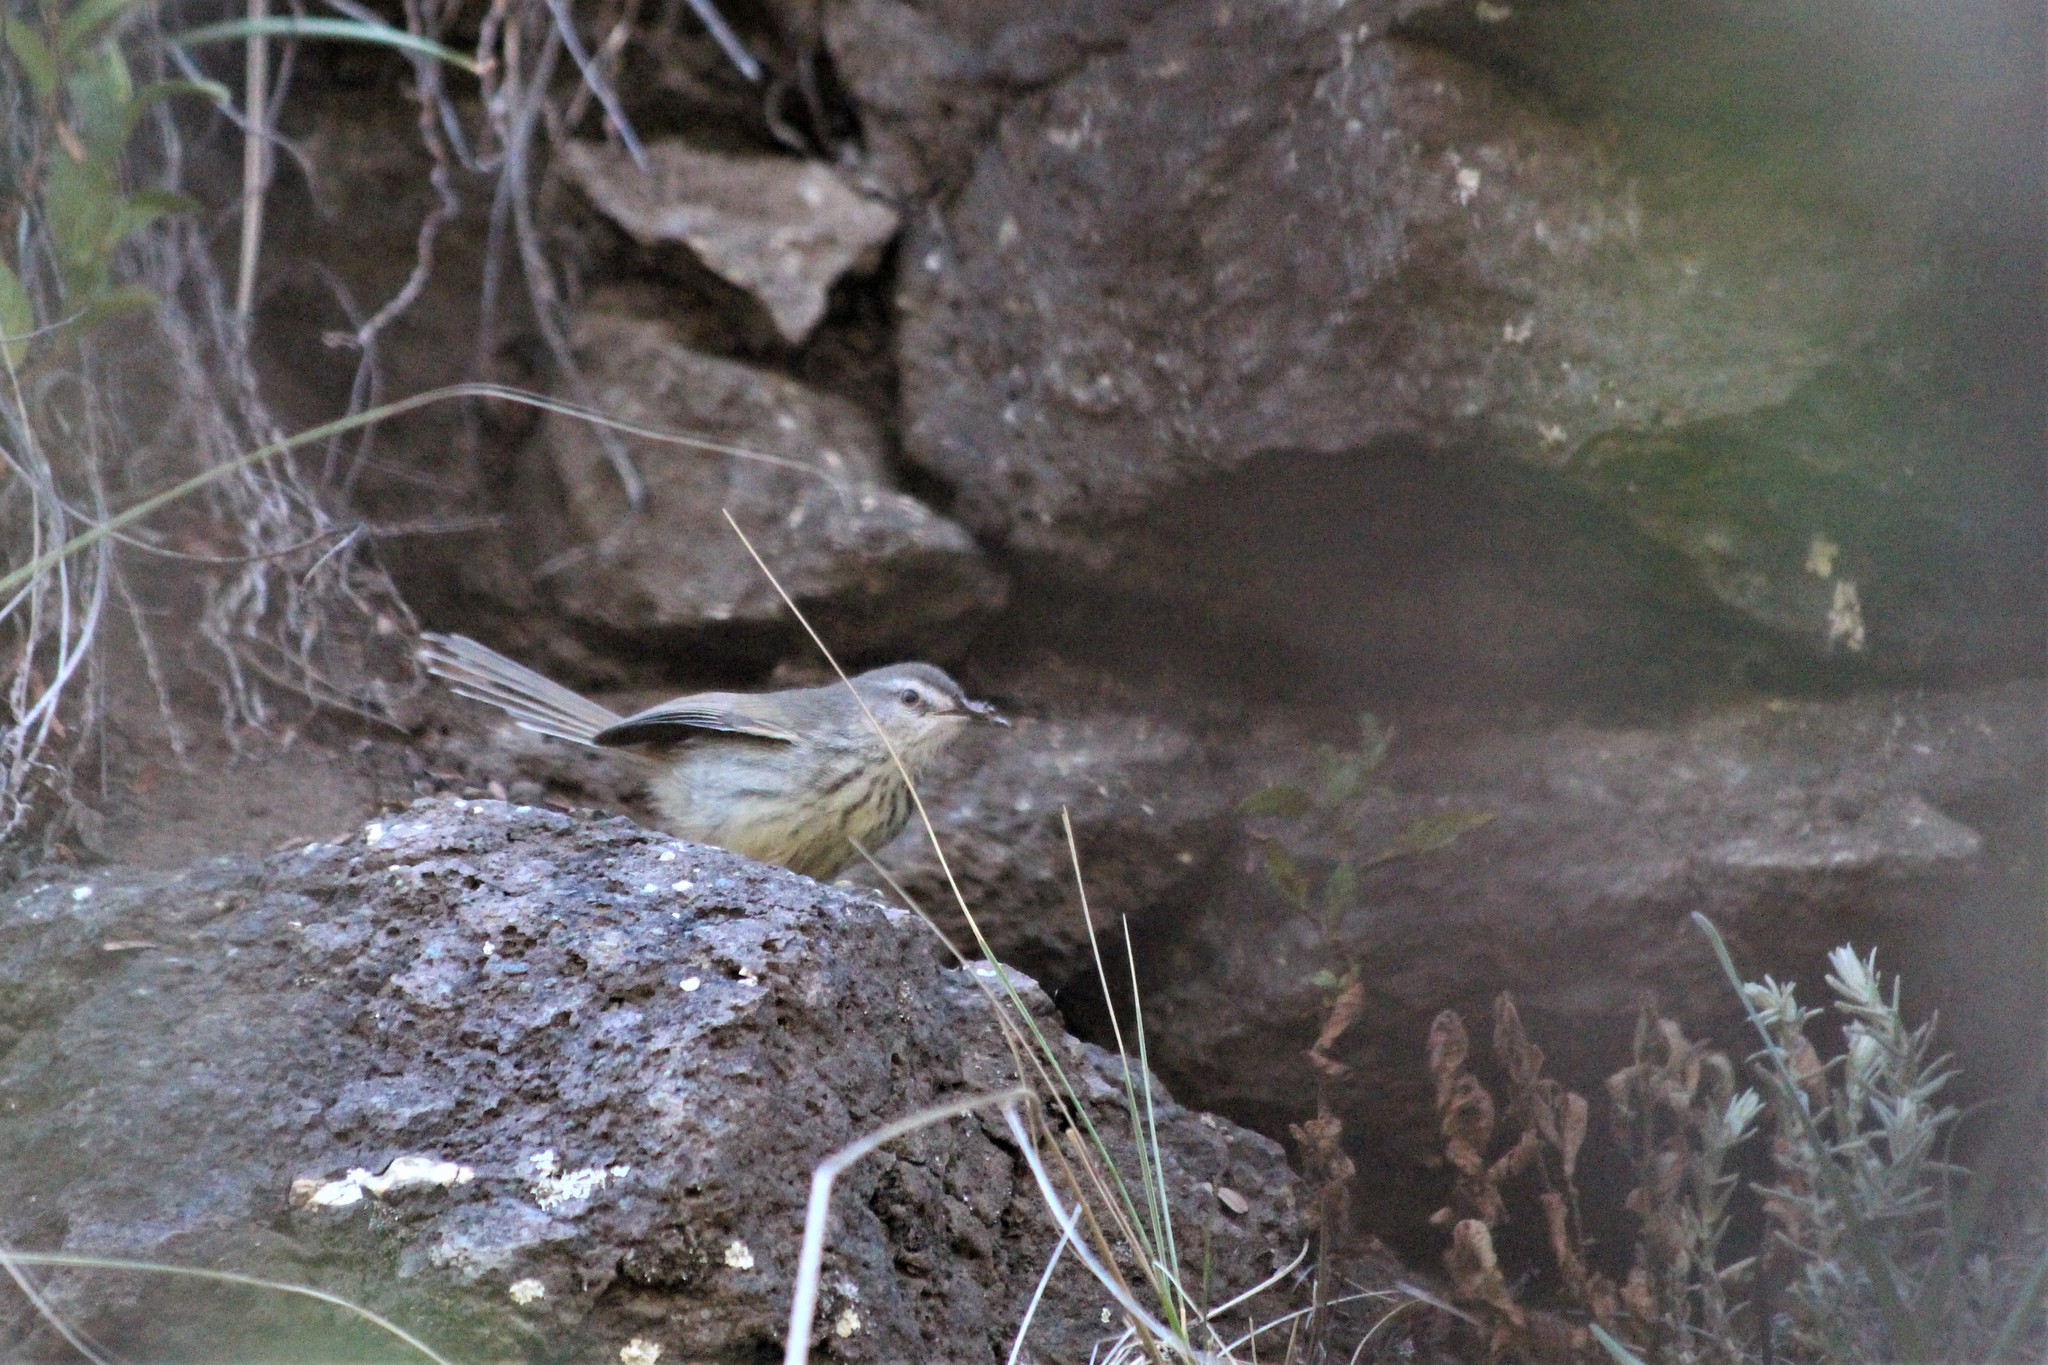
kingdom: Animalia
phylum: Chordata
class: Aves
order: Passeriformes
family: Cisticolidae
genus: Prinia
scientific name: Prinia maculosa
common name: Karoo prinia
